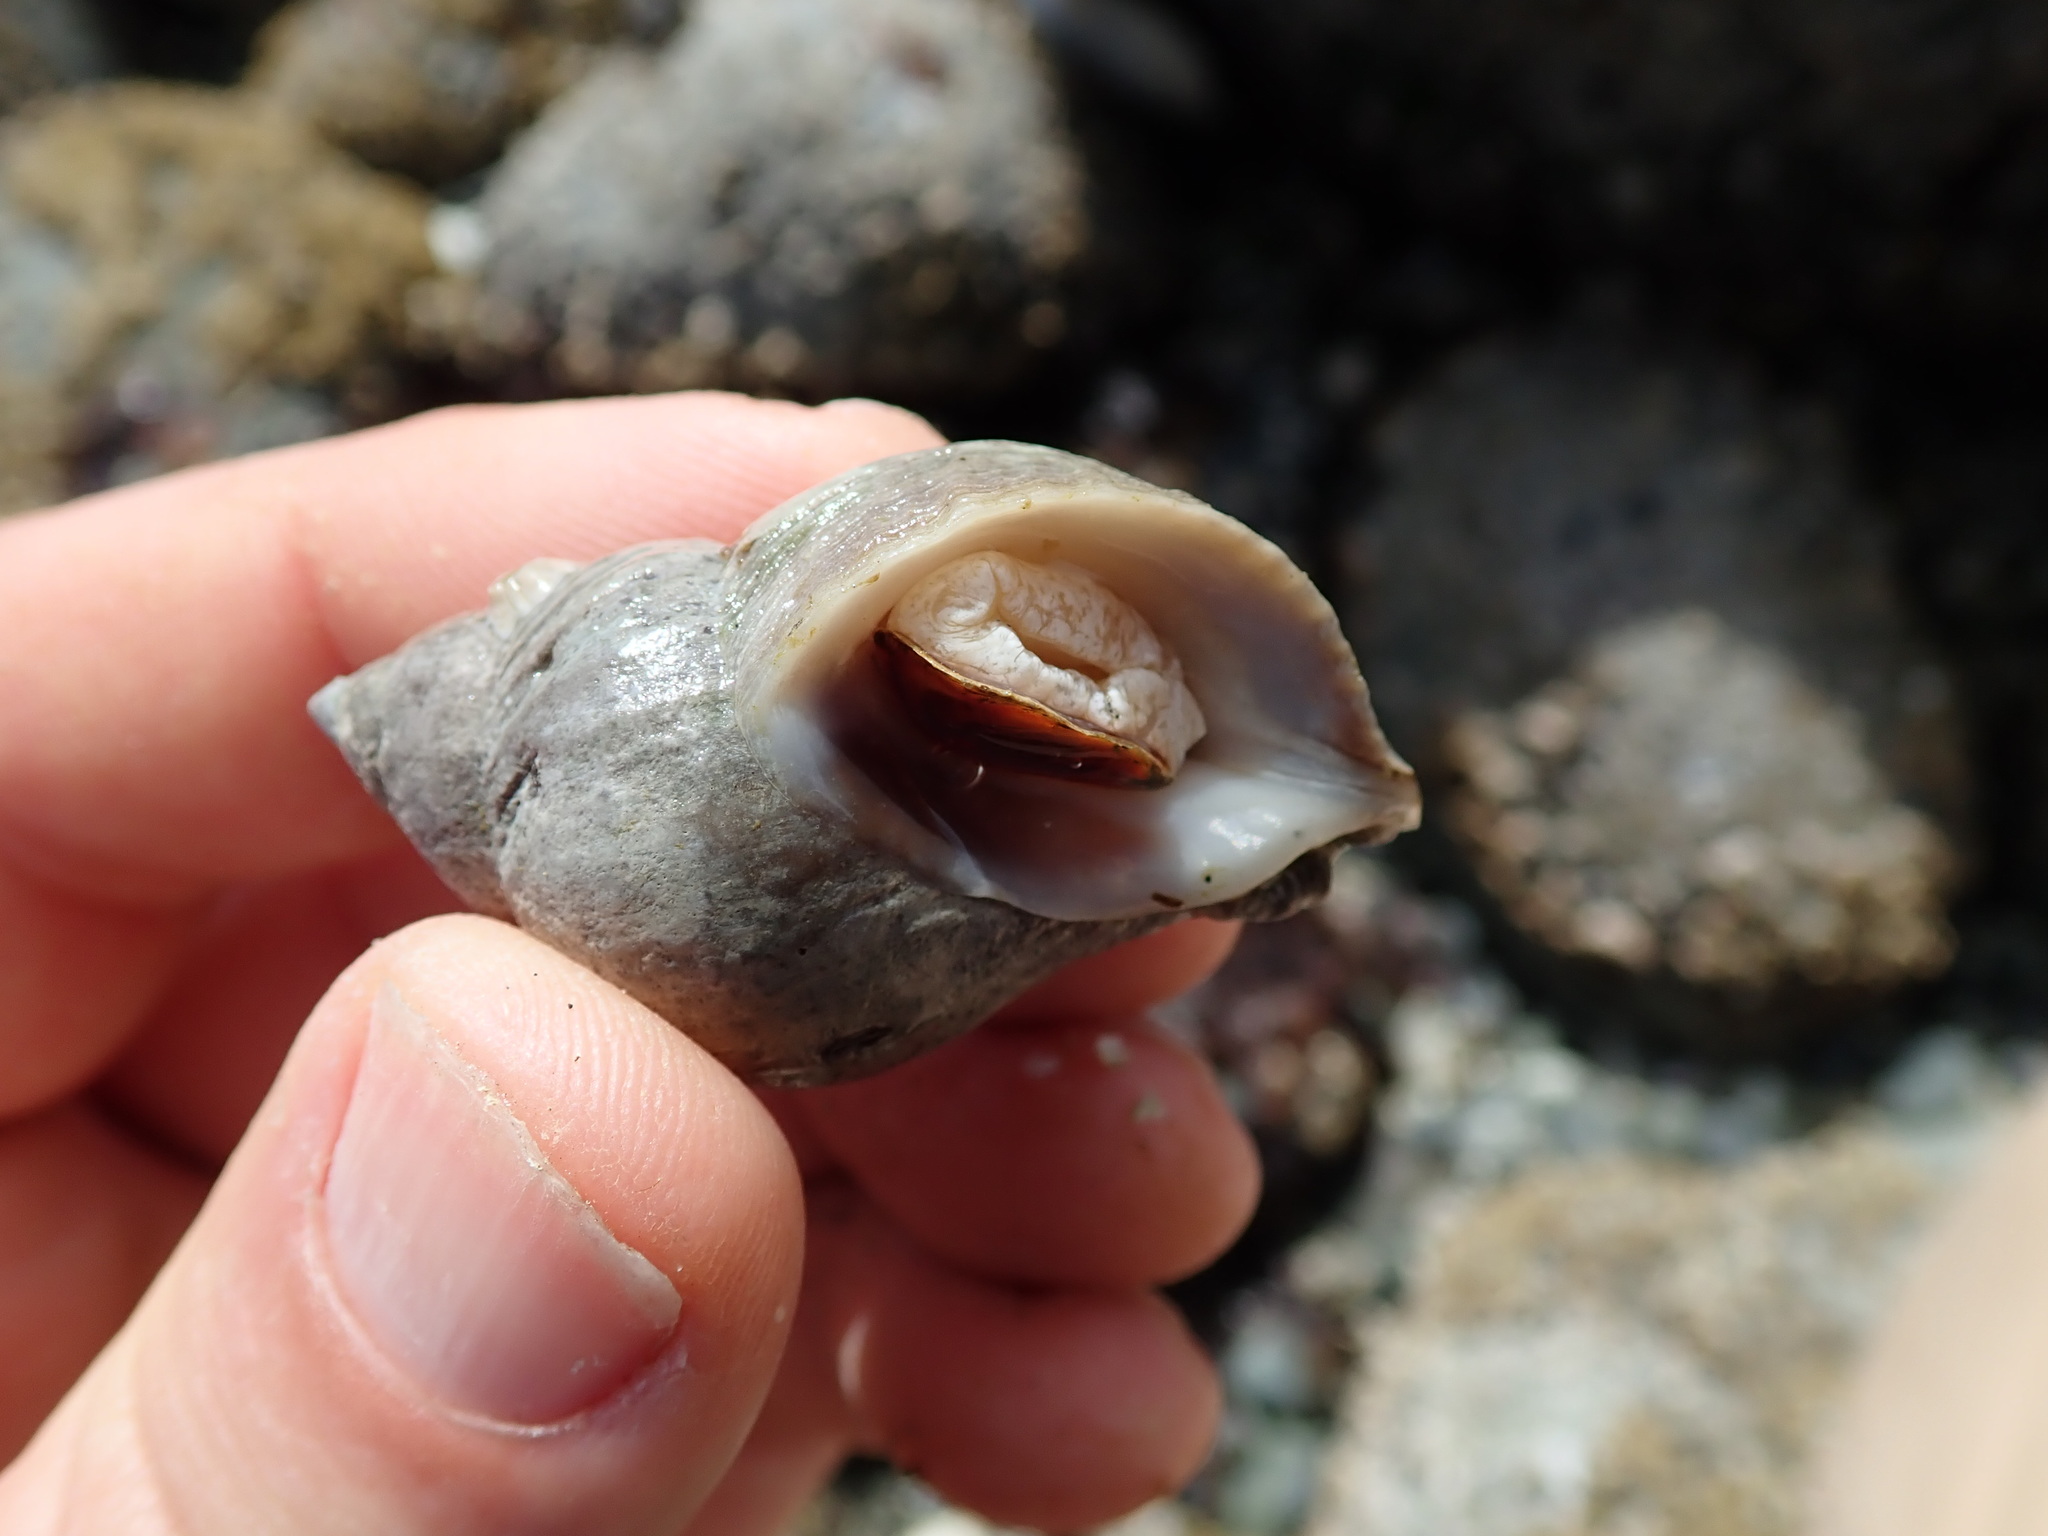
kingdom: Animalia
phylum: Mollusca
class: Gastropoda
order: Neogastropoda
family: Muricidae
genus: Nucella
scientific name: Nucella lamellosa
